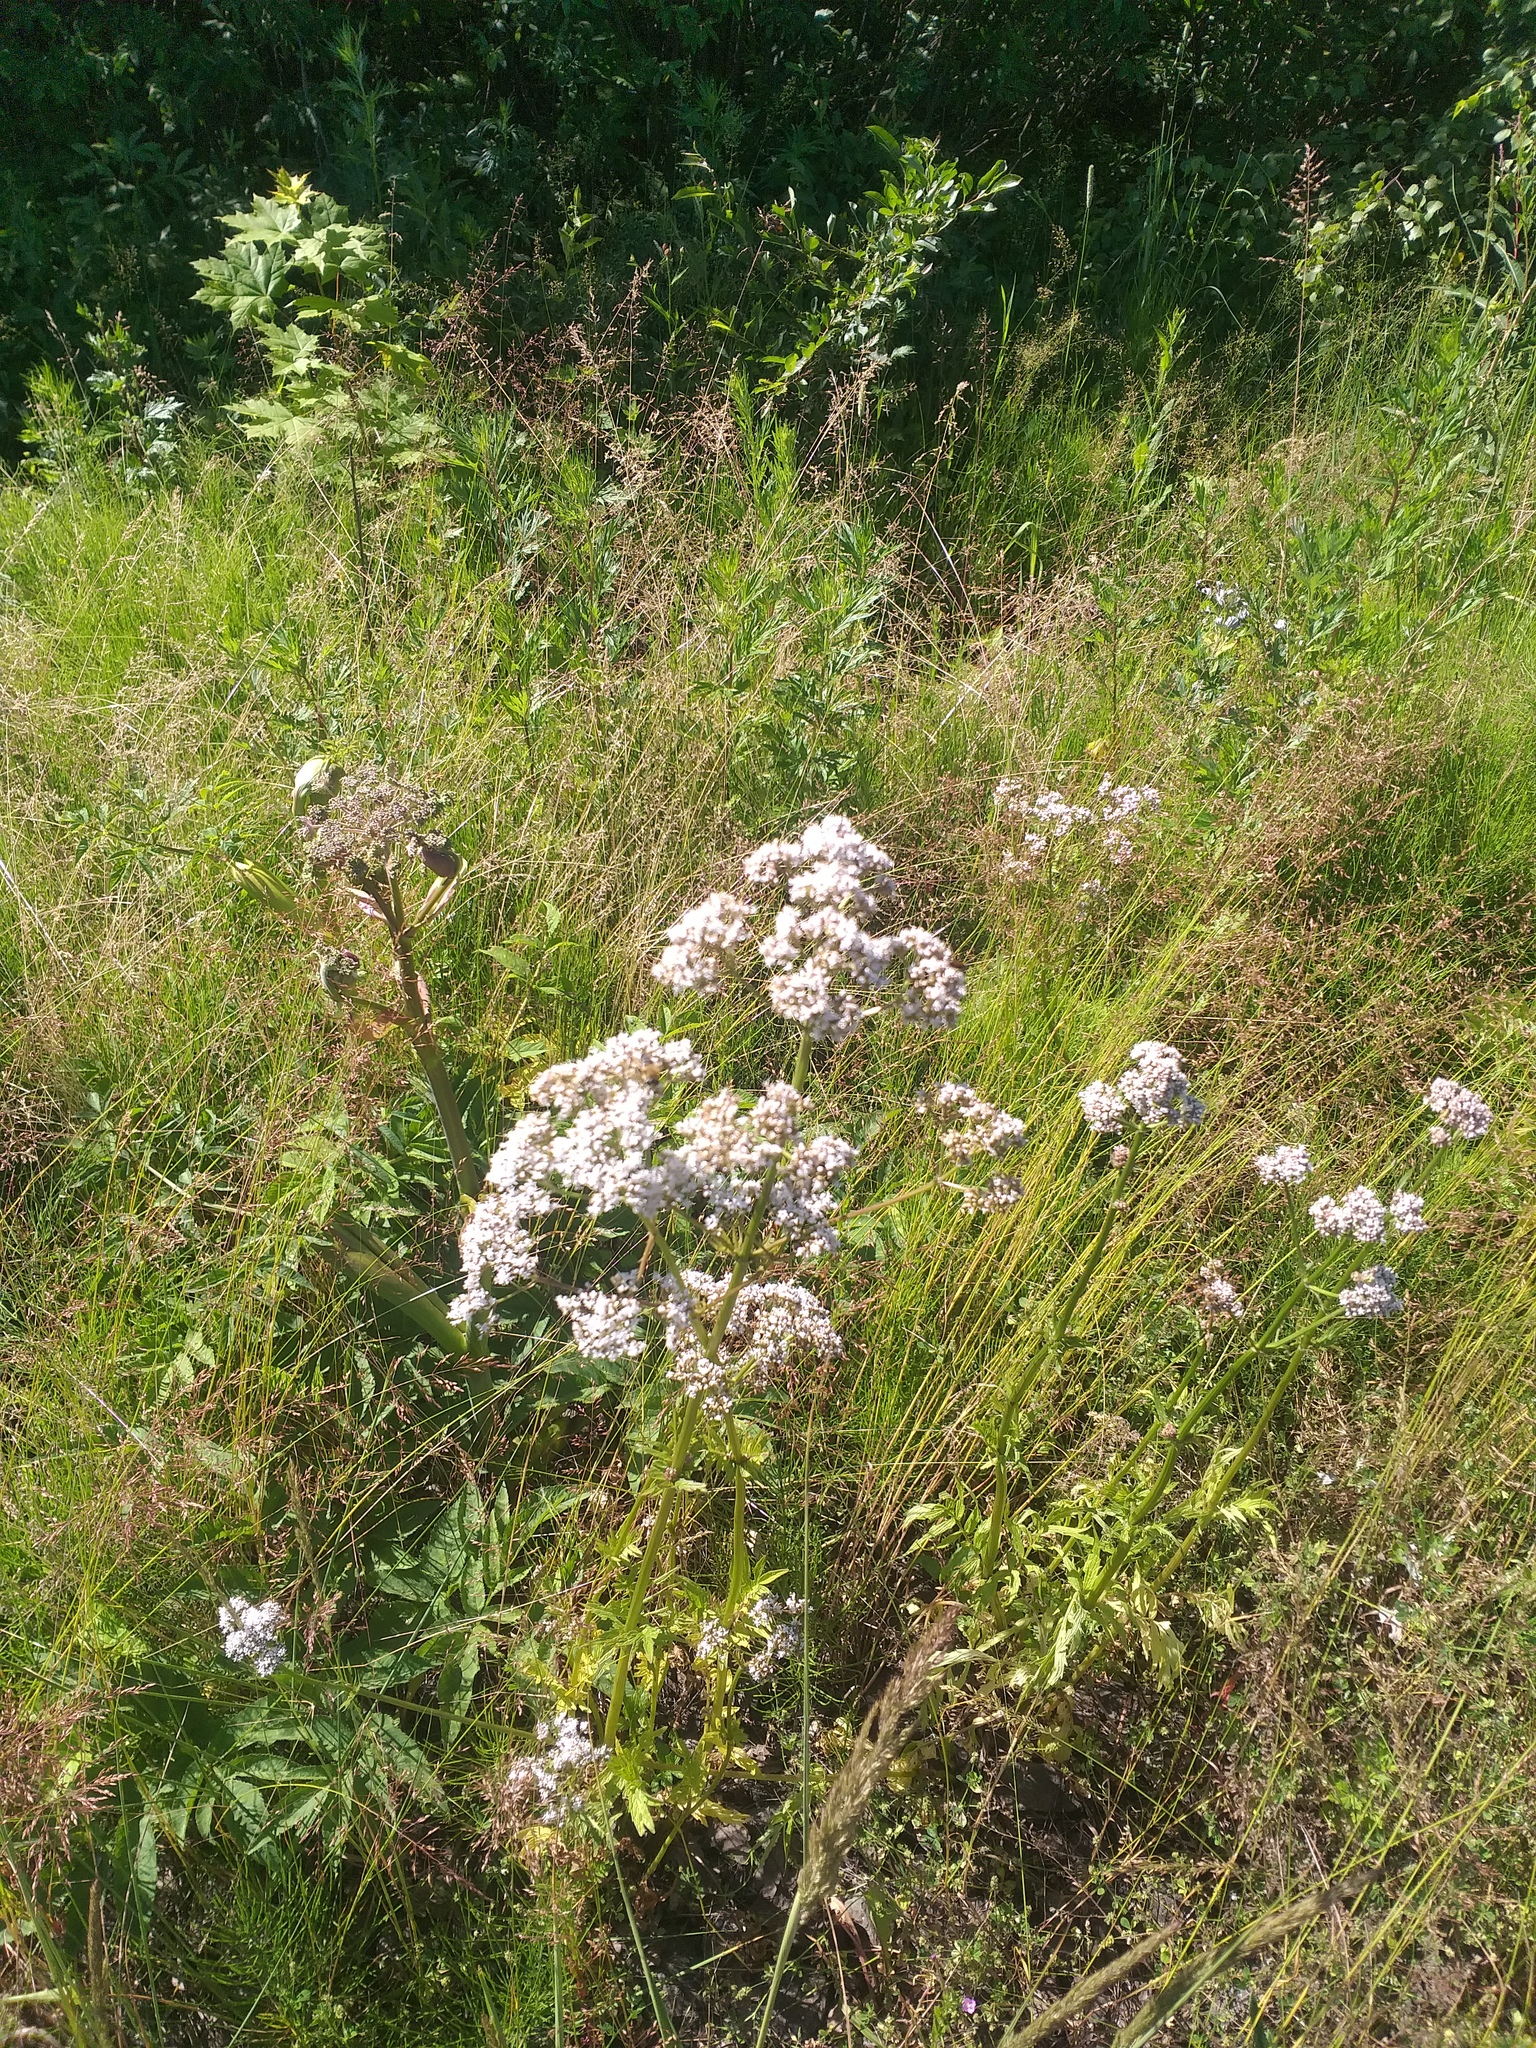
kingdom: Plantae
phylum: Tracheophyta
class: Magnoliopsida
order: Dipsacales
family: Caprifoliaceae
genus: Valeriana
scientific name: Valeriana officinalis
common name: Common valerian
